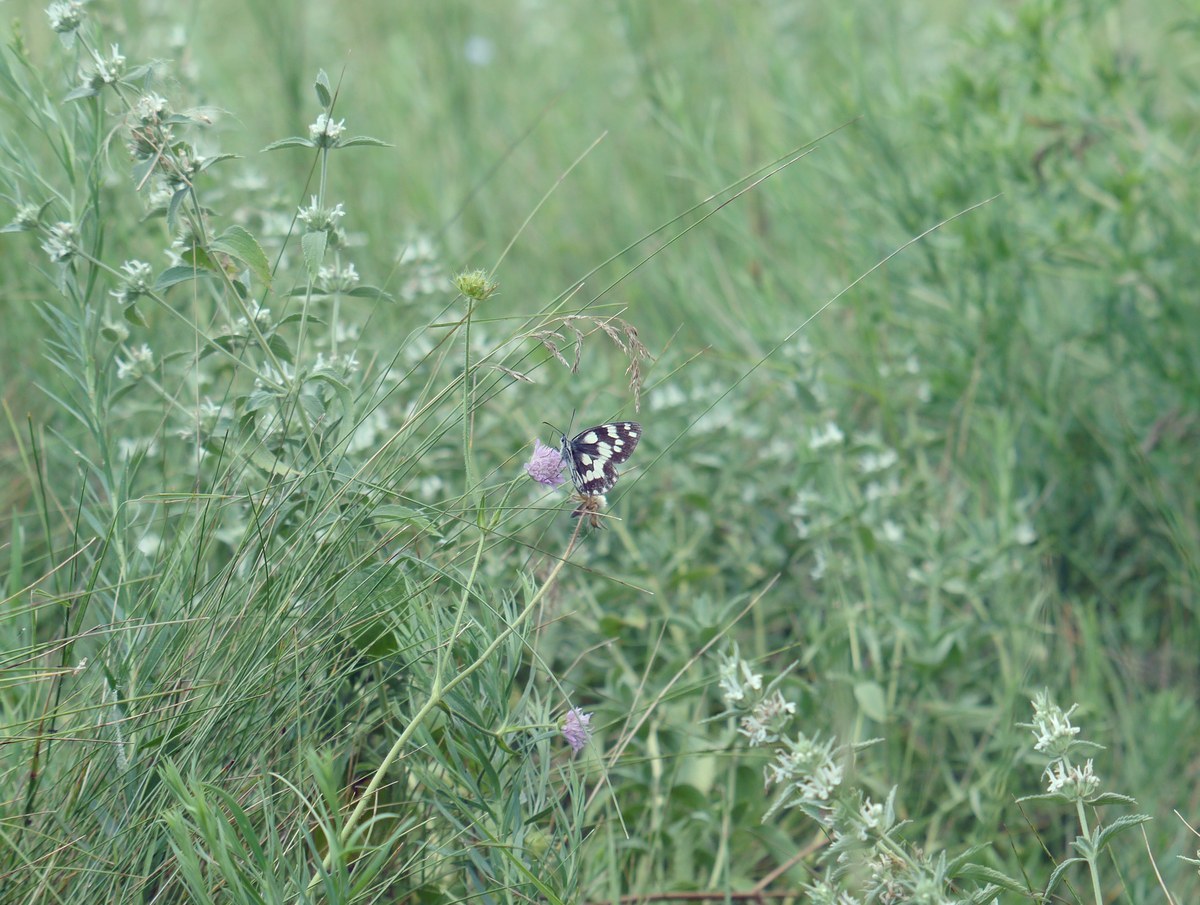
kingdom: Animalia
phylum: Arthropoda
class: Insecta
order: Lepidoptera
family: Nymphalidae
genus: Melanargia
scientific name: Melanargia galathea
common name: Marbled white
